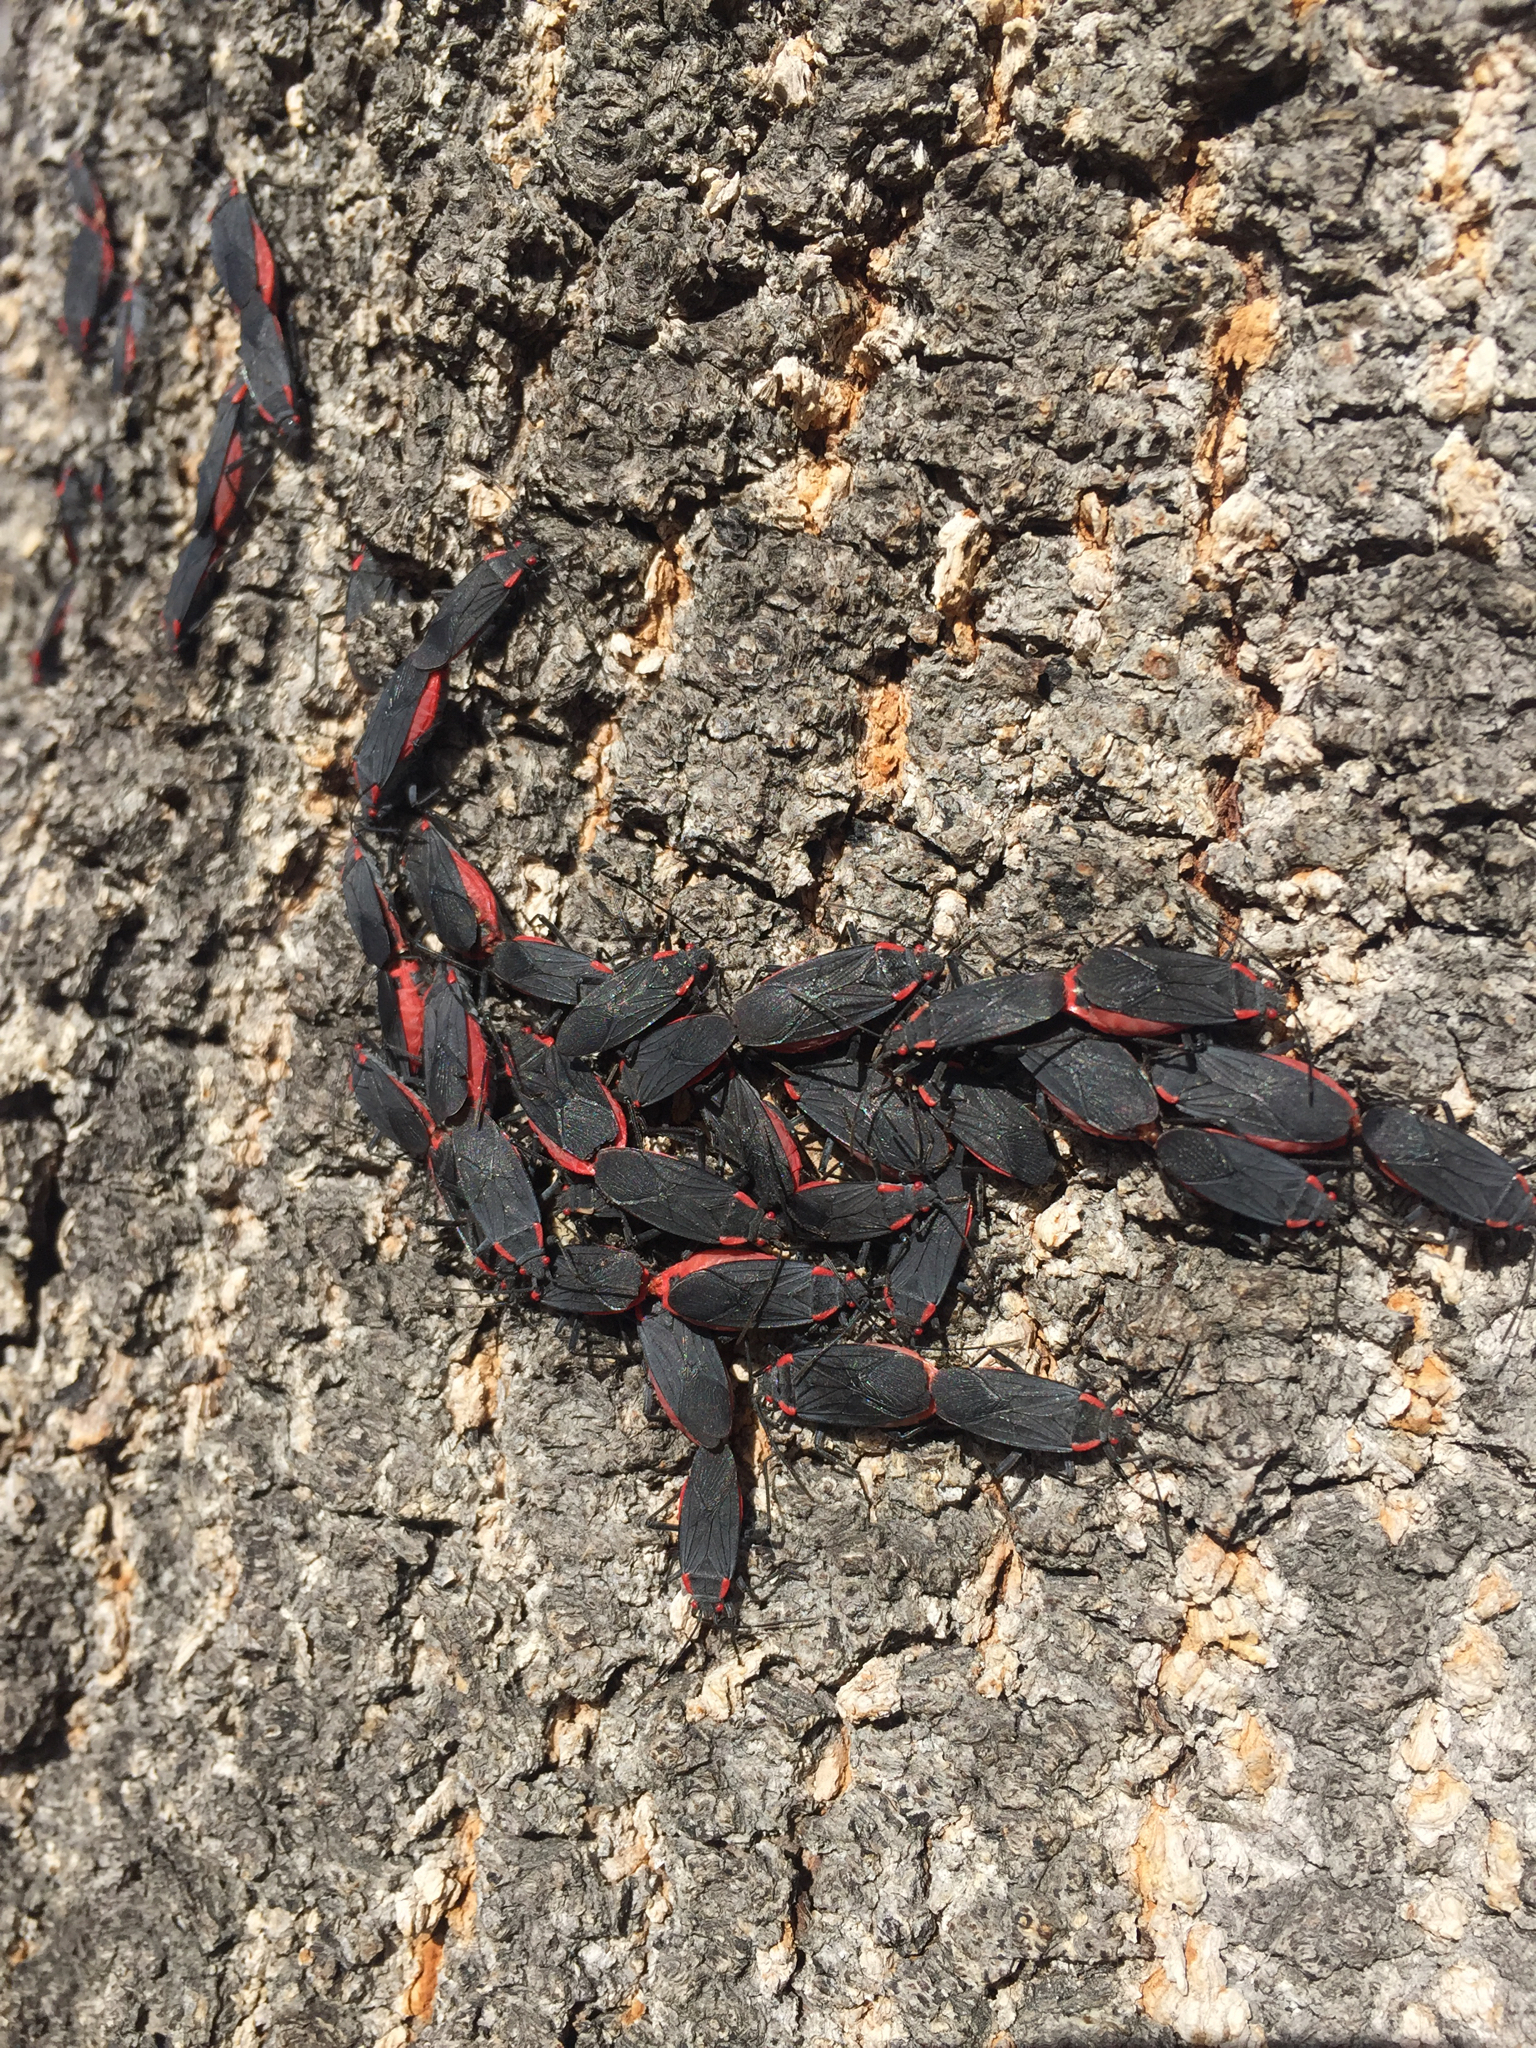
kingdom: Animalia
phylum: Arthropoda
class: Insecta
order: Hemiptera
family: Rhopalidae
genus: Jadera
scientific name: Jadera haematoloma
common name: Red-shouldered bug
